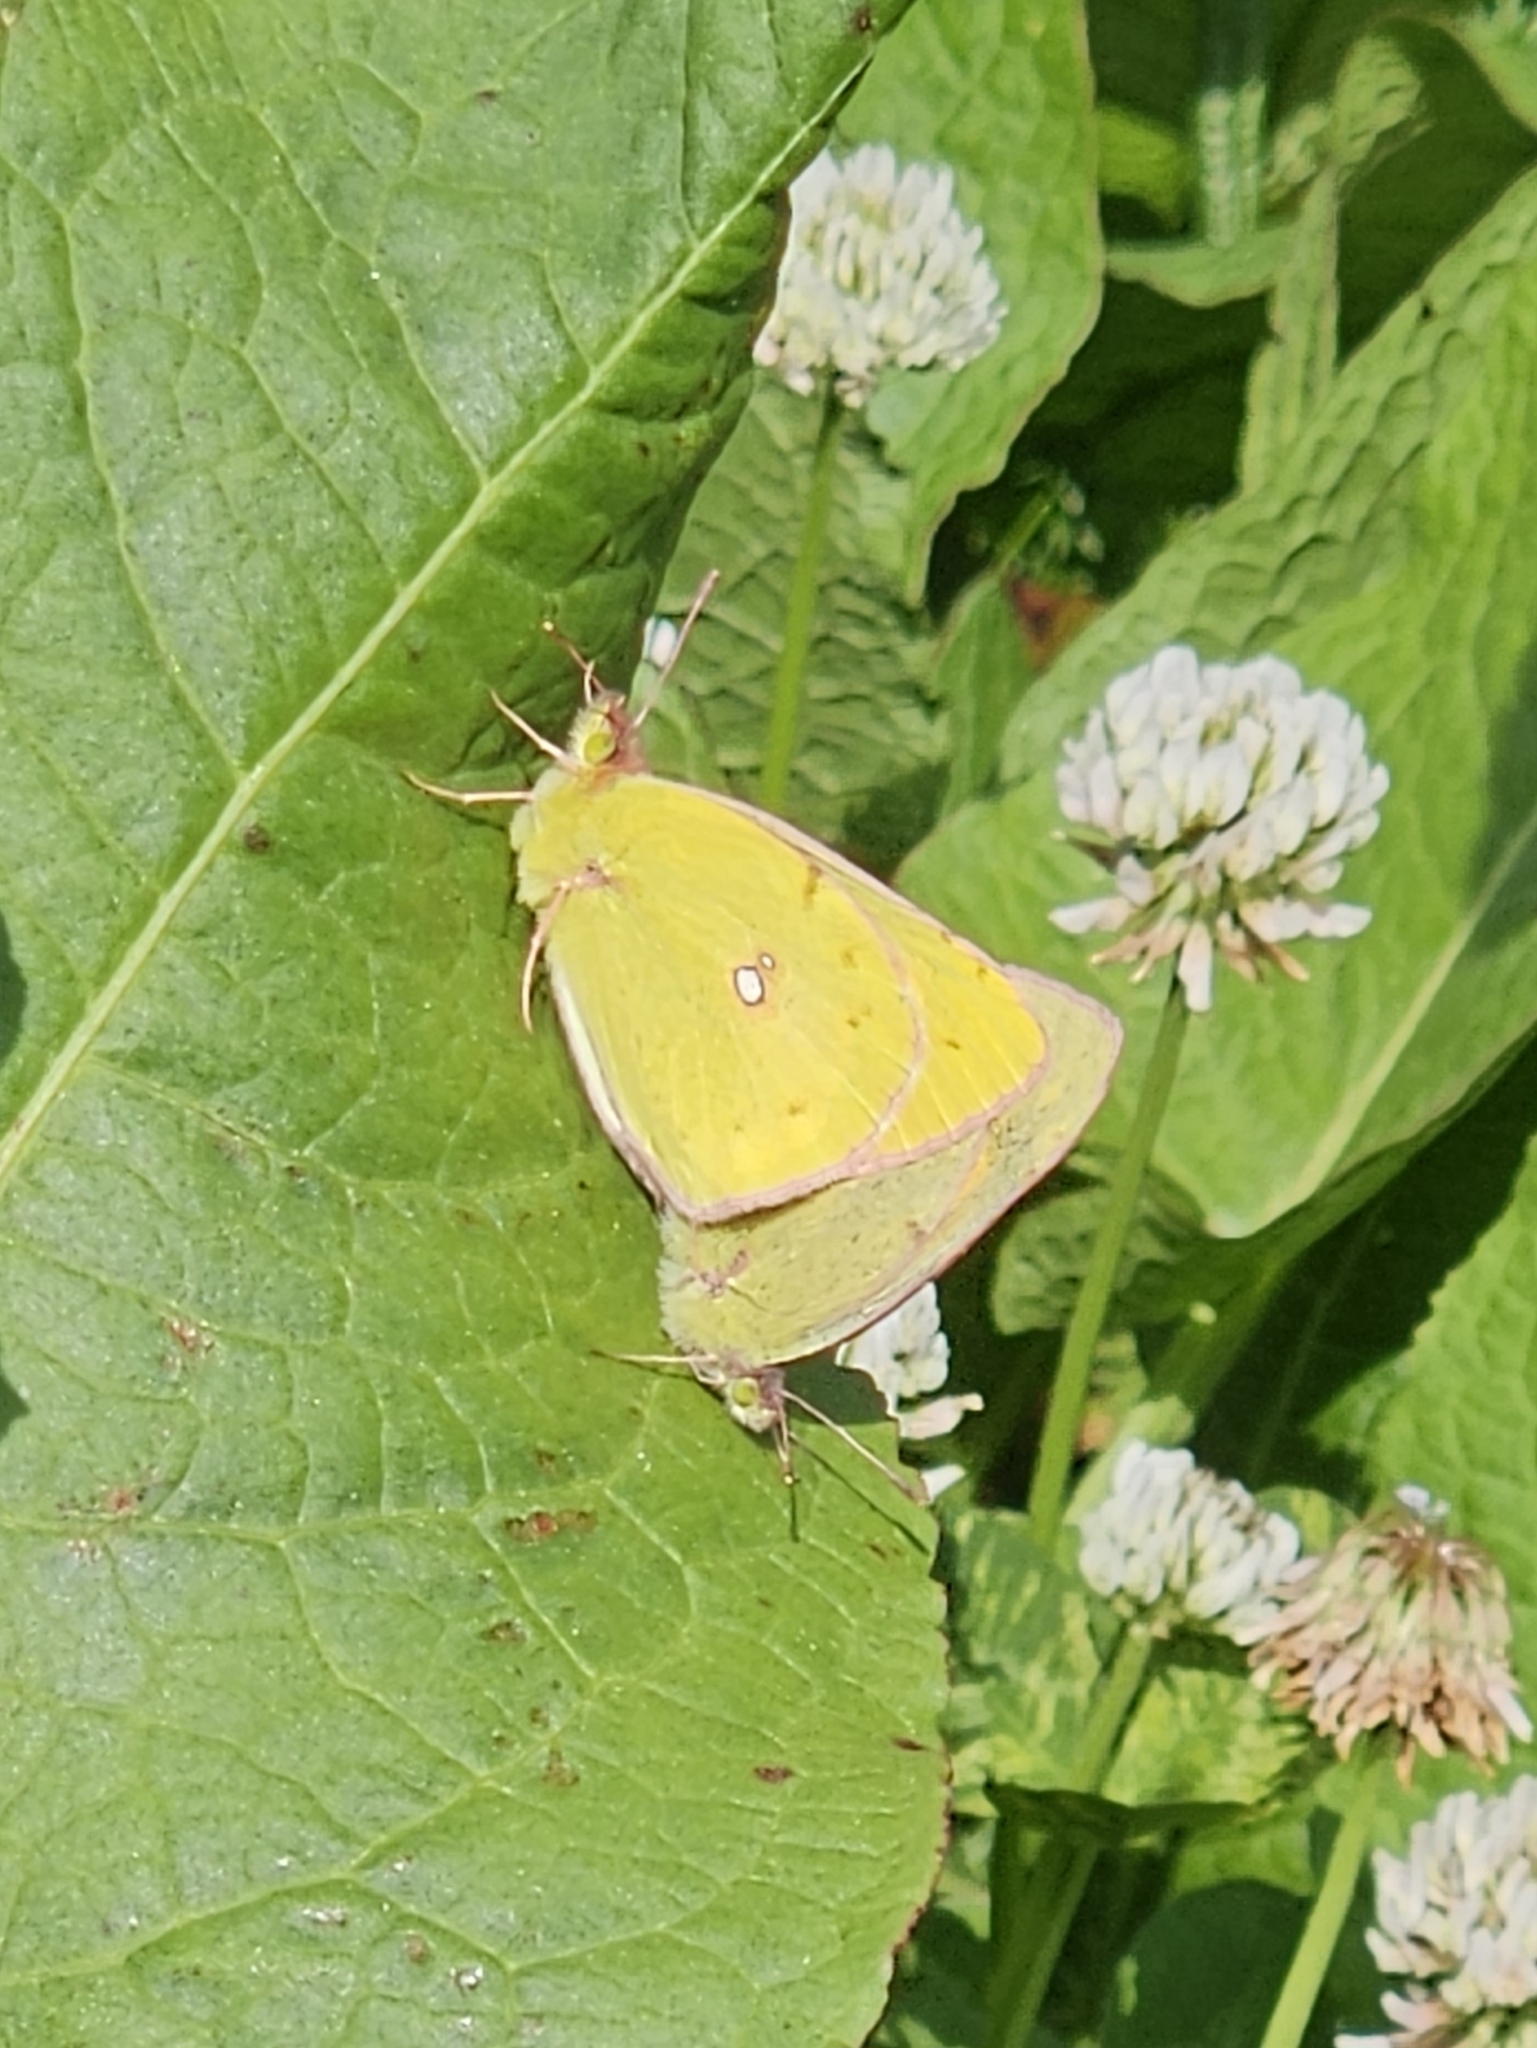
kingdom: Animalia
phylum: Arthropoda
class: Insecta
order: Lepidoptera
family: Pieridae
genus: Colias
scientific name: Colias fieldii
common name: Dark clouded yellow
